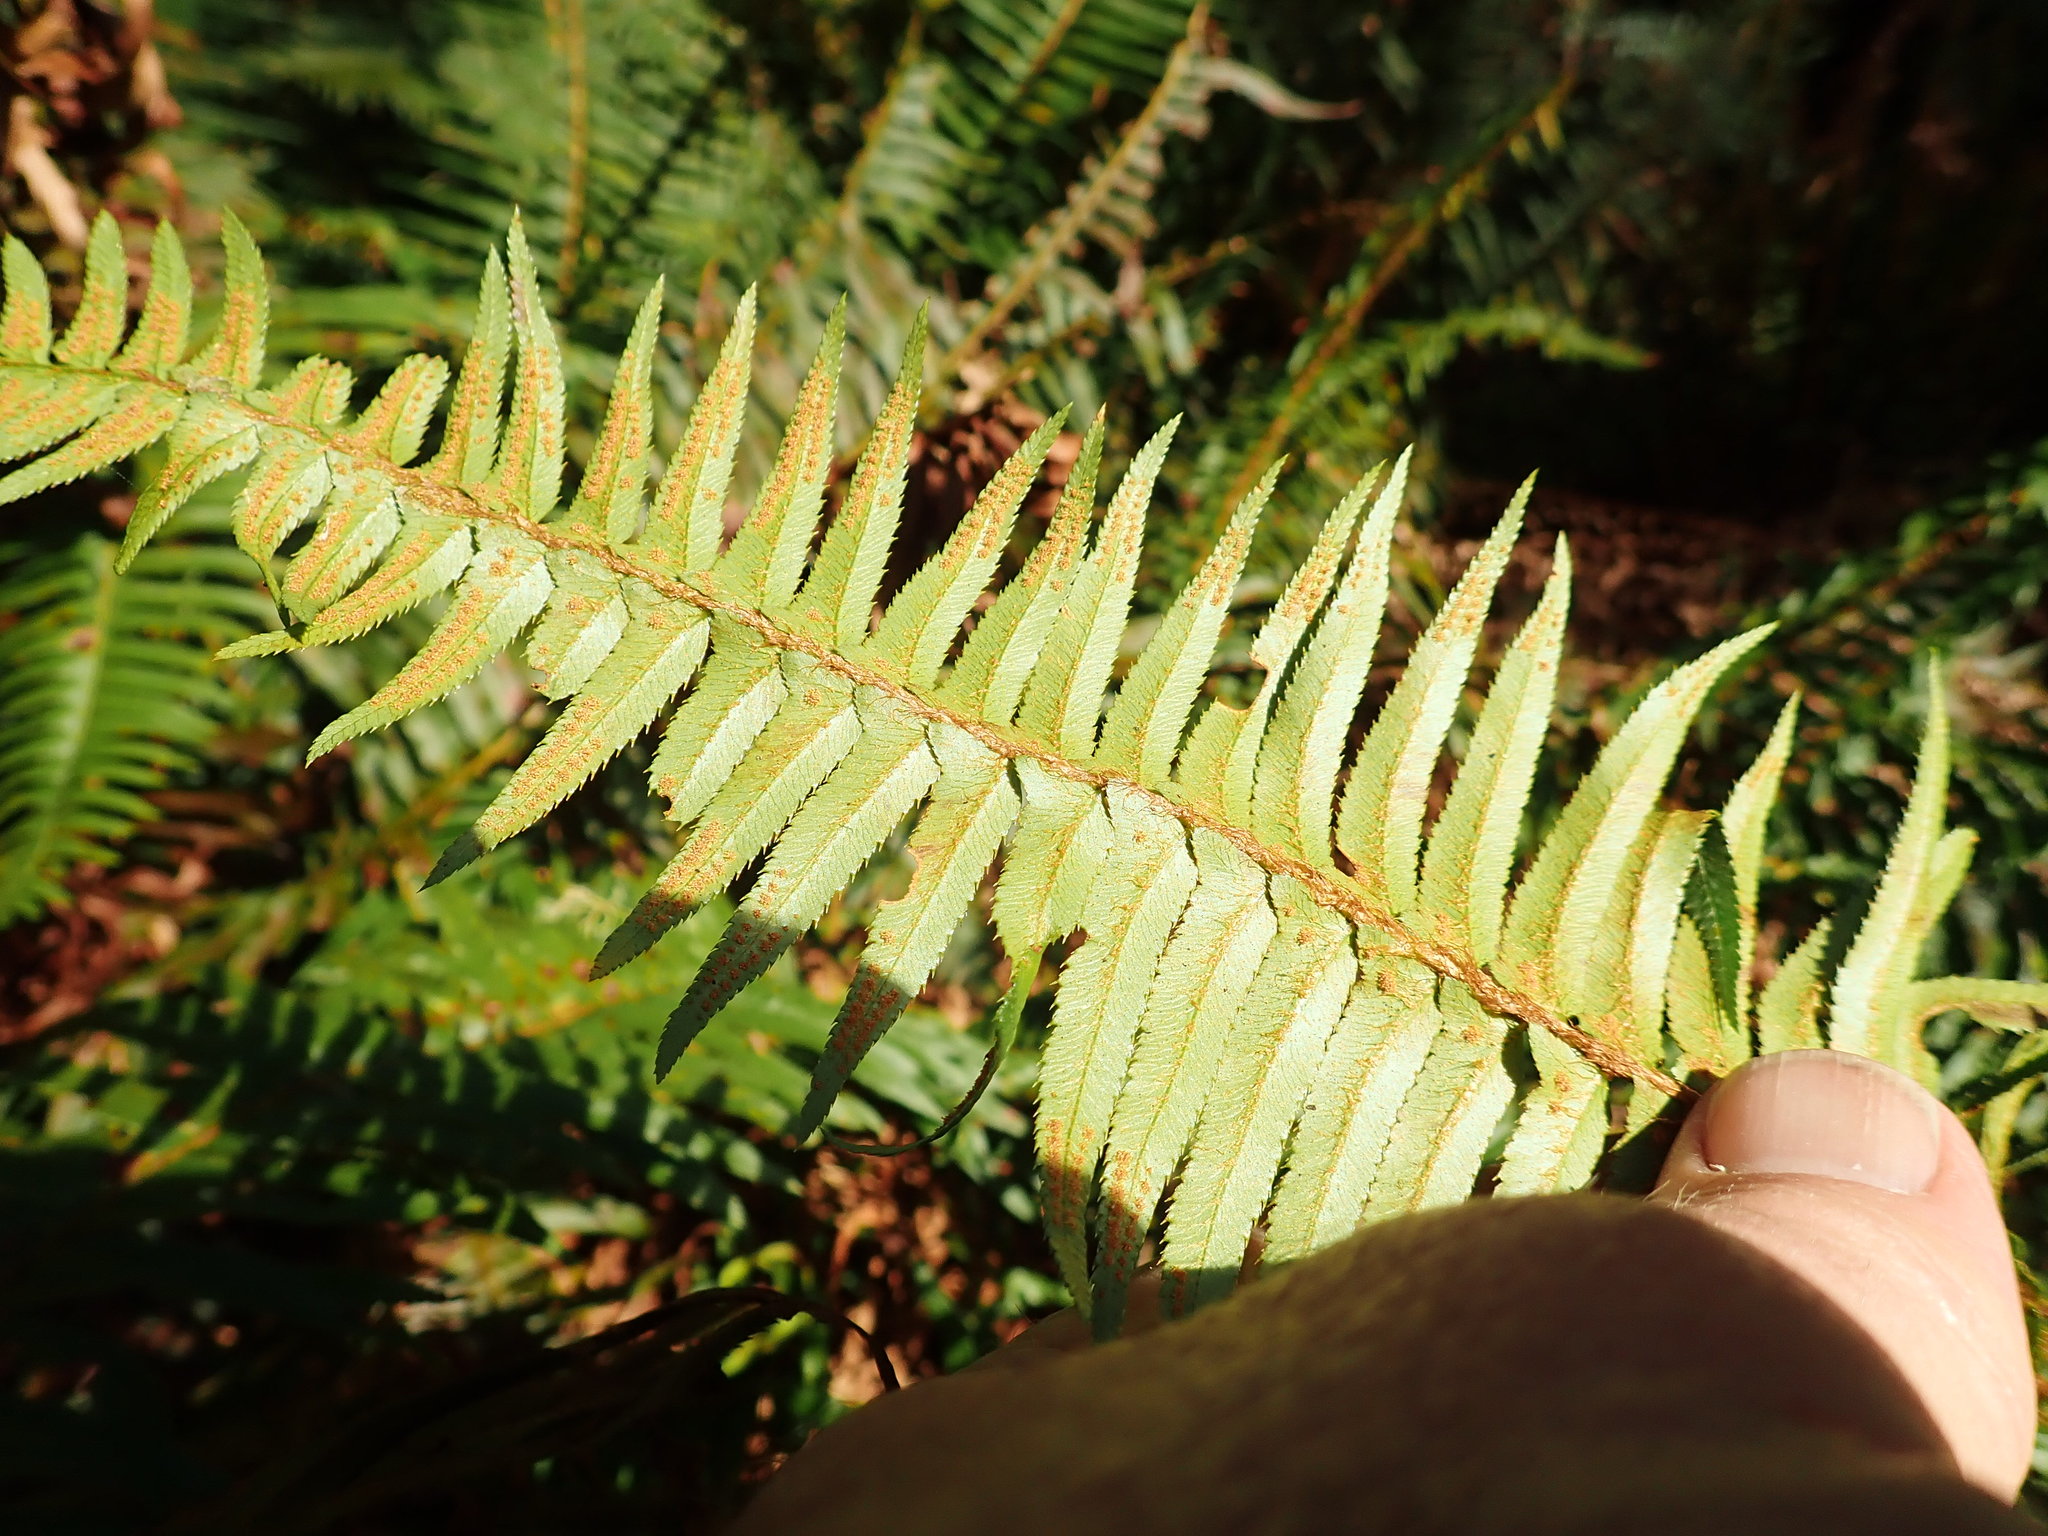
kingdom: Plantae
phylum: Tracheophyta
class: Polypodiopsida
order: Polypodiales
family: Dryopteridaceae
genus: Polystichum
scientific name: Polystichum munitum
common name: Western sword-fern
